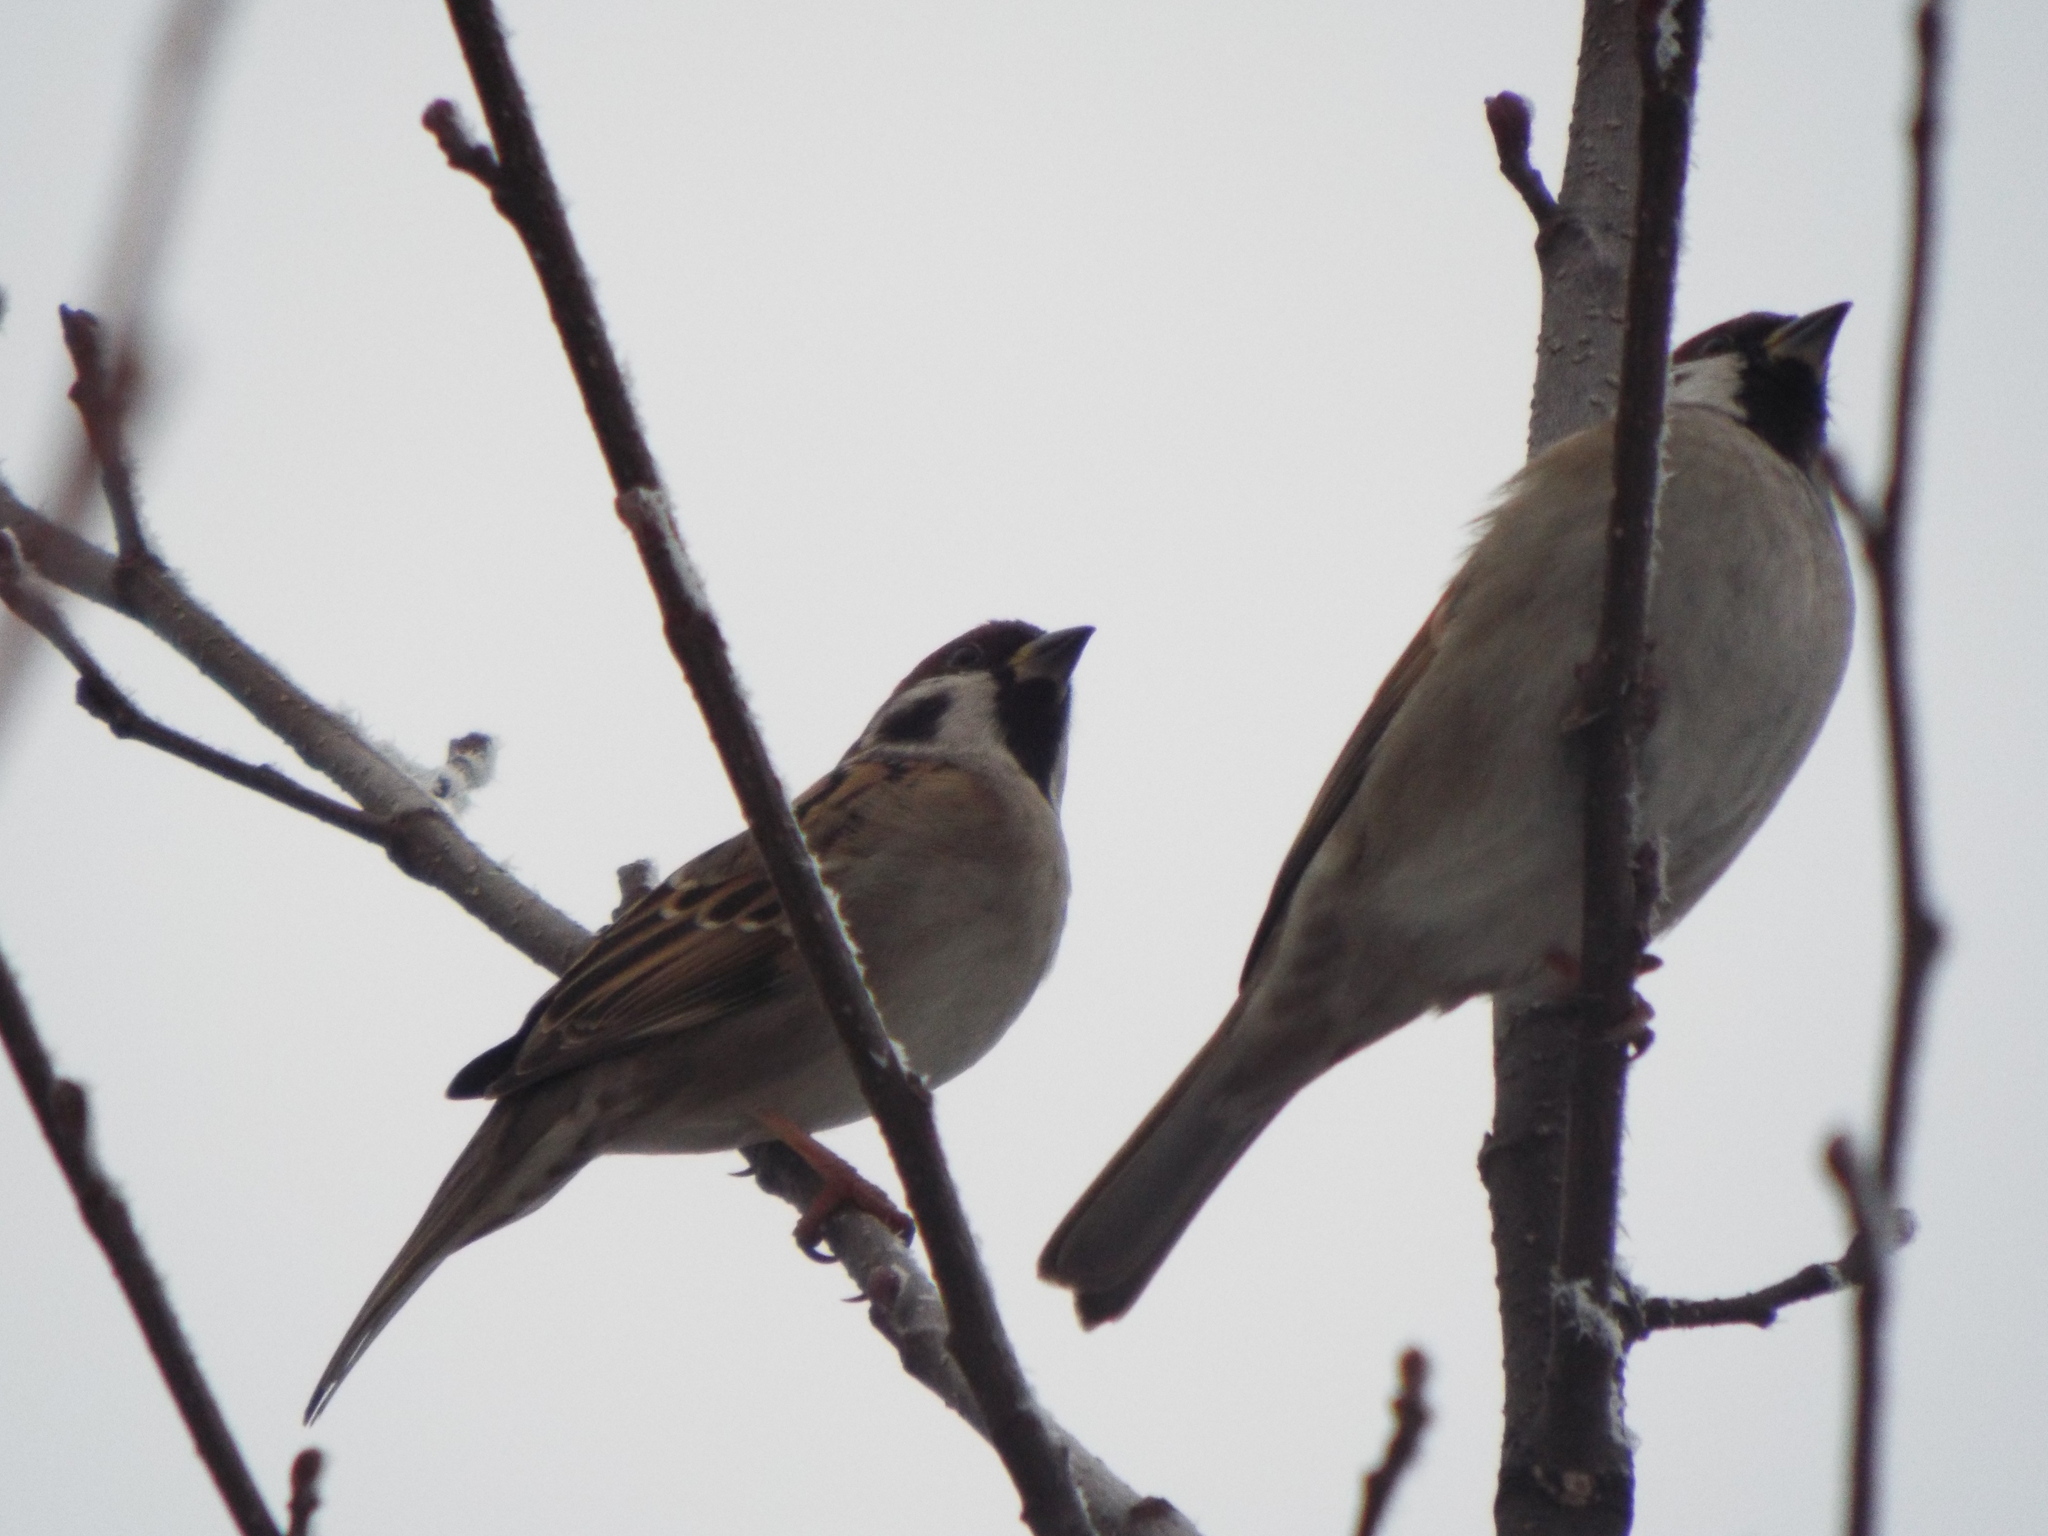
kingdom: Animalia
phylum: Chordata
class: Aves
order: Passeriformes
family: Passeridae
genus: Passer
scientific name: Passer montanus
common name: Eurasian tree sparrow
